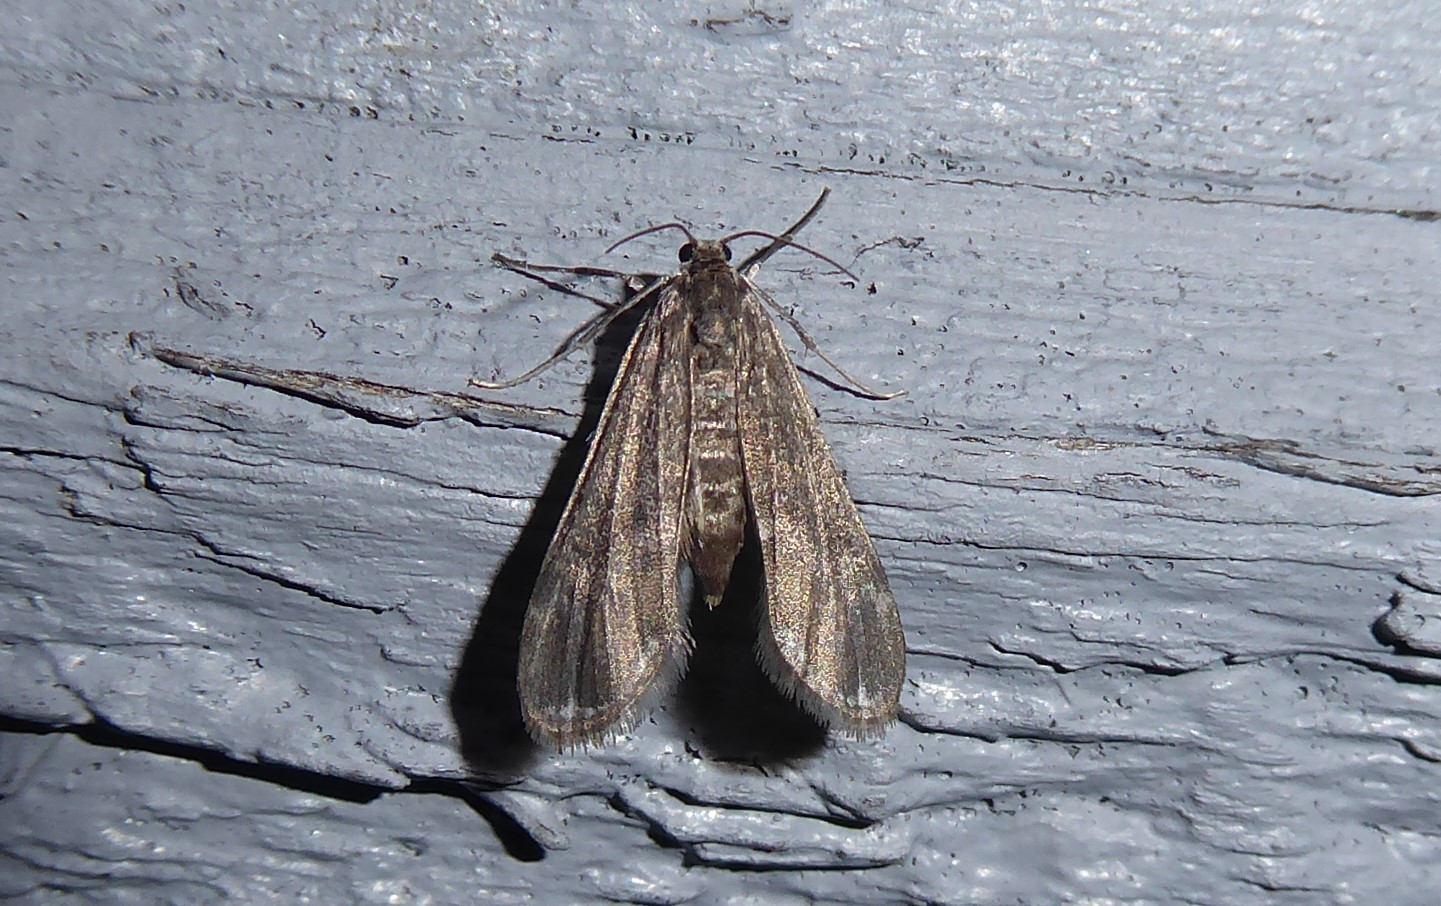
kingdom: Animalia
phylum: Arthropoda
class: Insecta
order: Lepidoptera
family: Crambidae
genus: Hygraula
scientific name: Hygraula nitens
